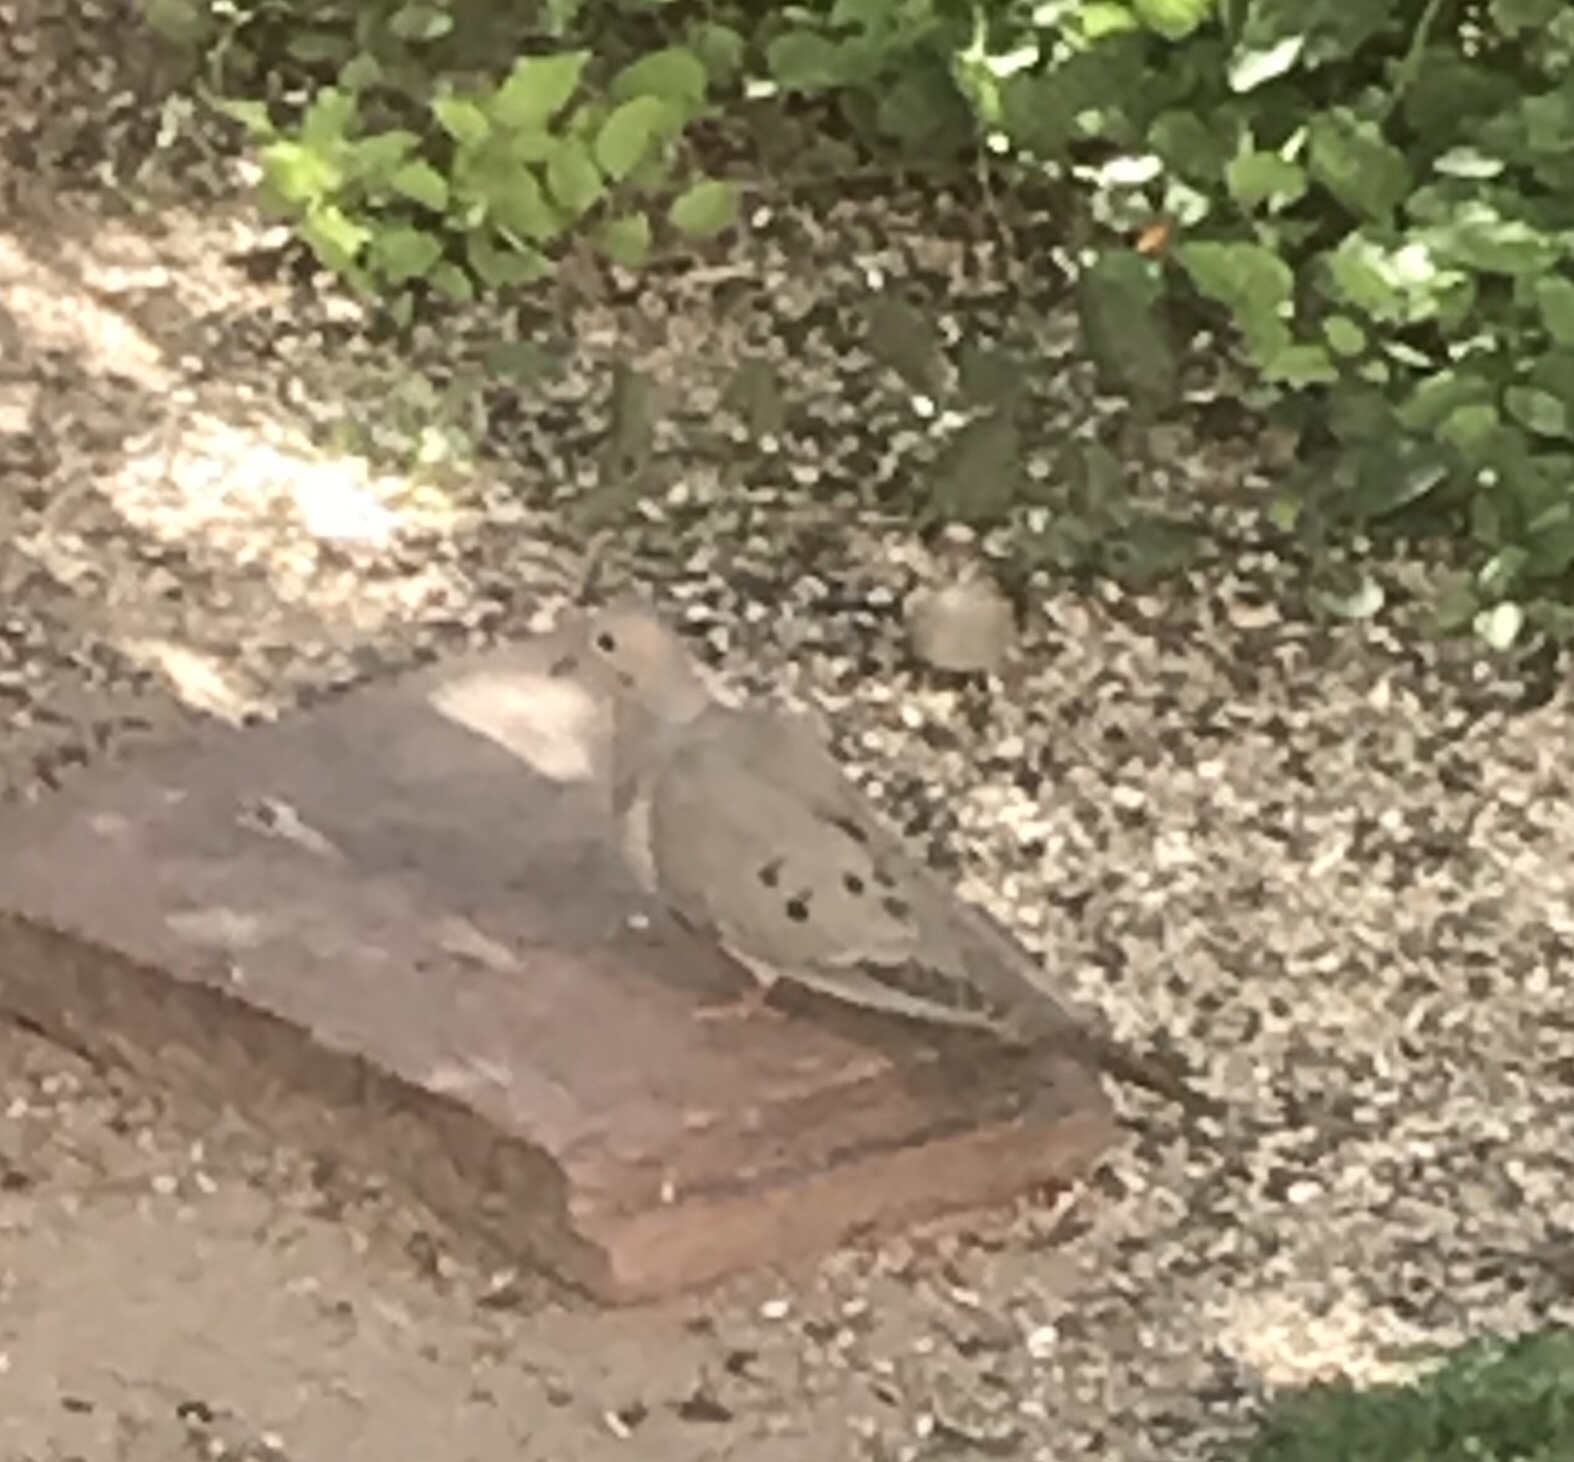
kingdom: Animalia
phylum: Chordata
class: Aves
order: Columbiformes
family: Columbidae
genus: Zenaida
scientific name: Zenaida macroura
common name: Mourning dove
